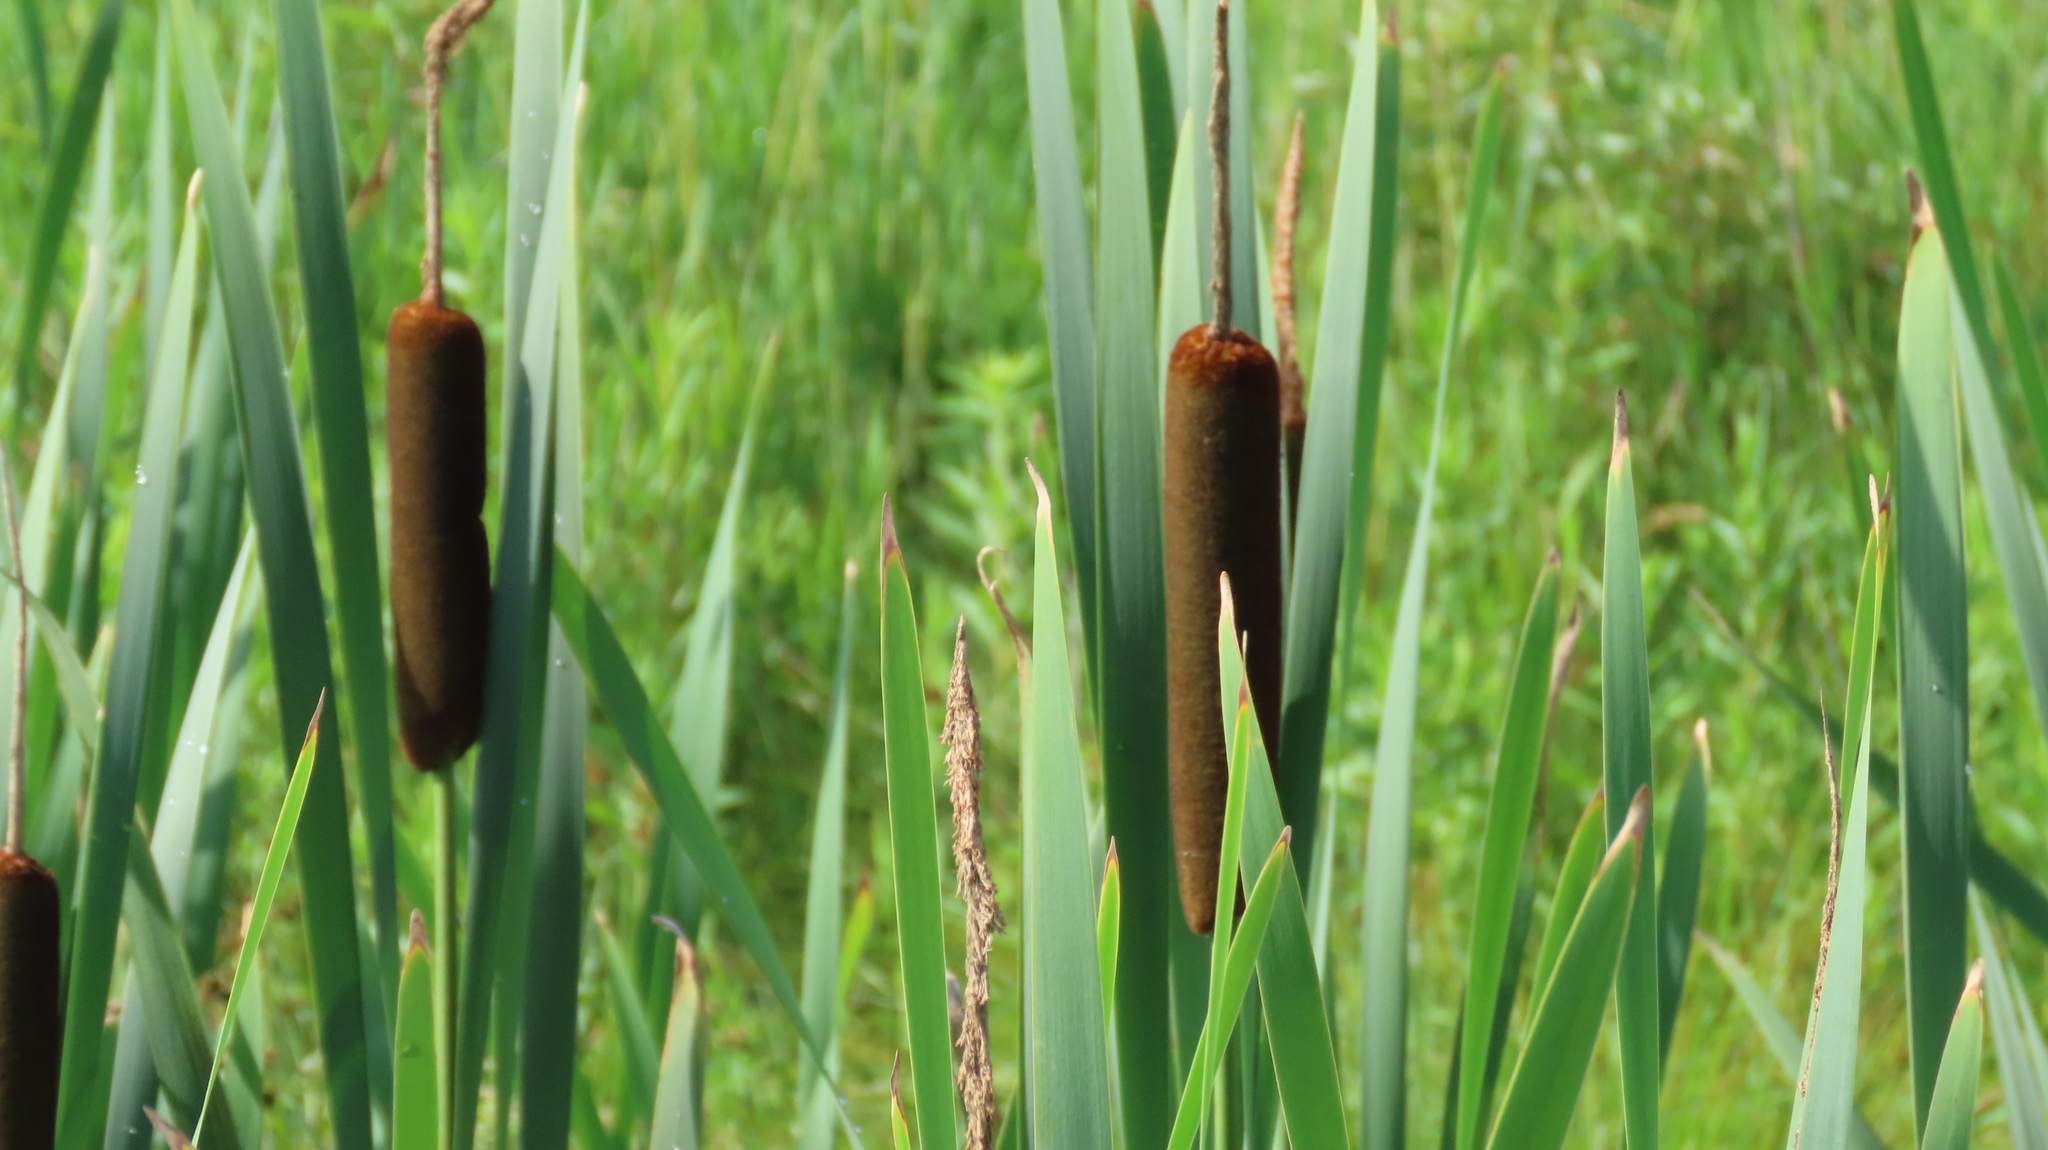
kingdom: Plantae
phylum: Tracheophyta
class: Liliopsida
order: Poales
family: Typhaceae
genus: Typha
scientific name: Typha latifolia
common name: Broadleaf cattail
